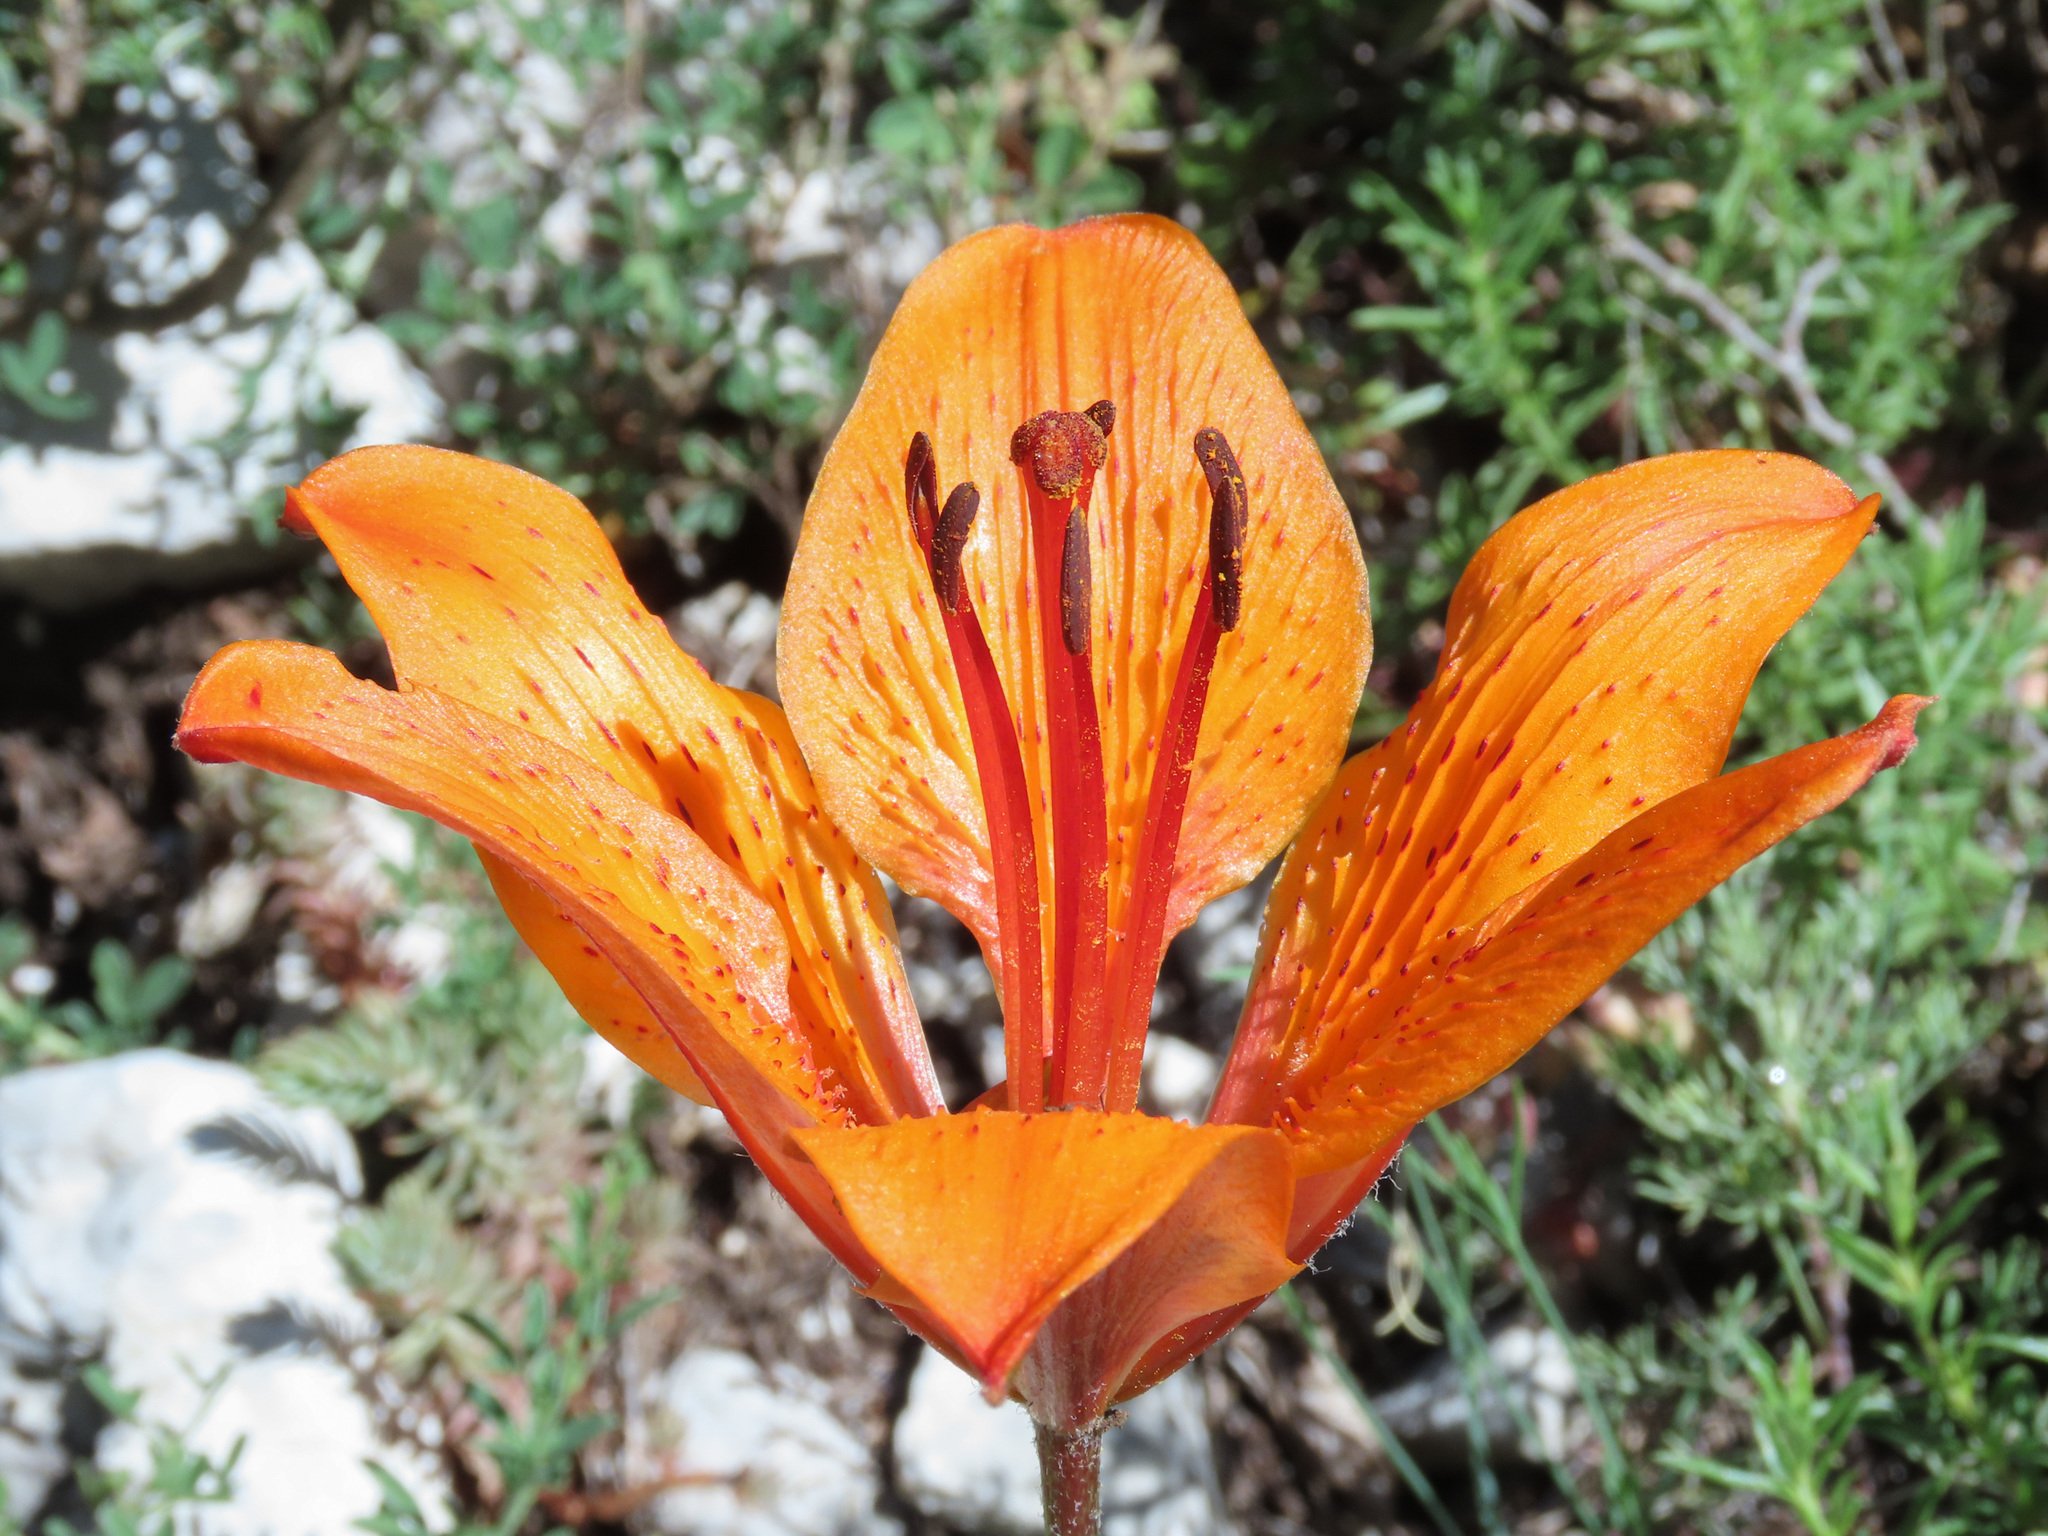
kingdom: Plantae
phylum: Tracheophyta
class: Liliopsida
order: Liliales
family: Liliaceae
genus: Lilium
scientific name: Lilium bulbiferum
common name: Orange lily
